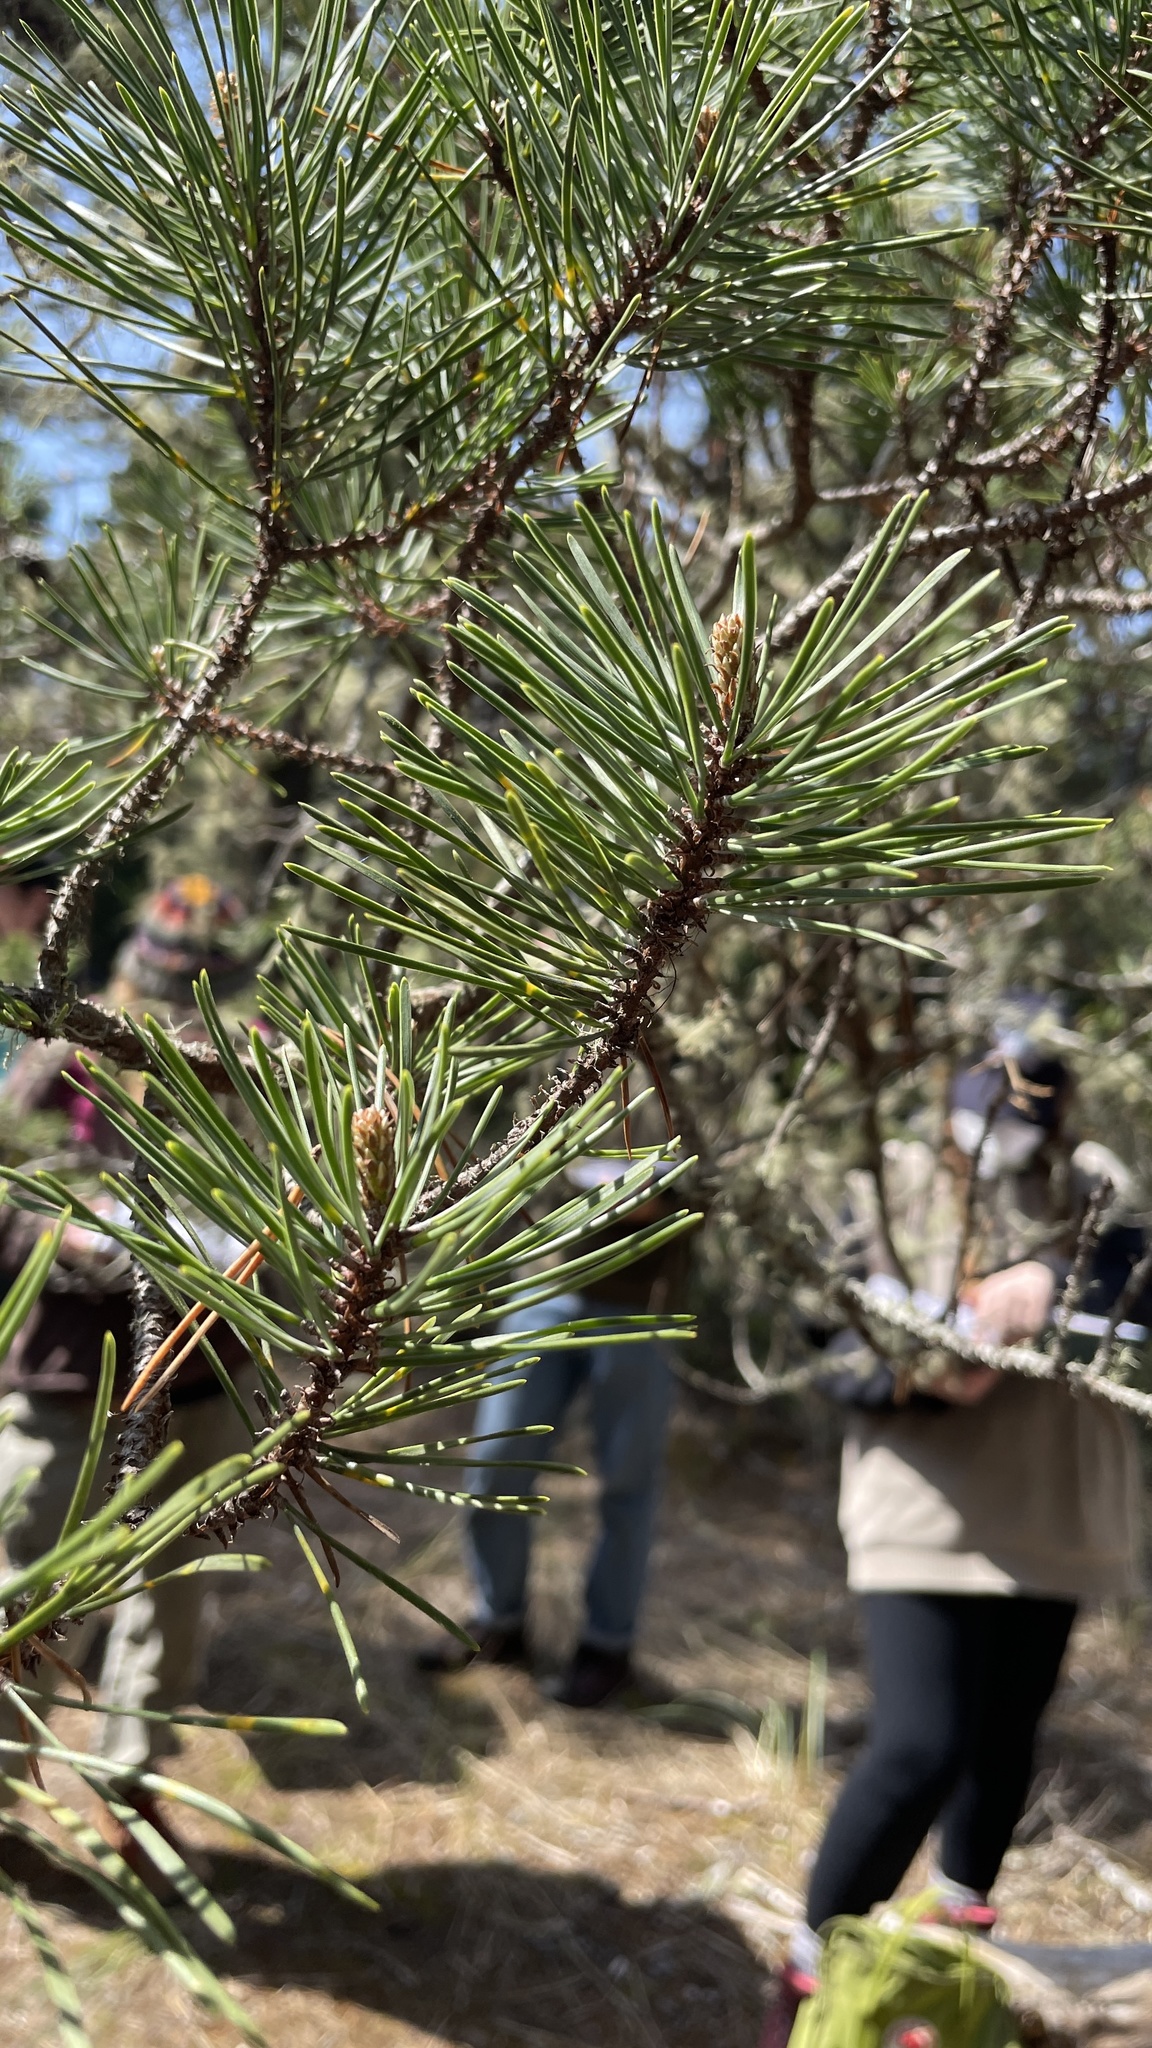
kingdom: Plantae
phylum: Tracheophyta
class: Pinopsida
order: Pinales
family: Pinaceae
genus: Pinus
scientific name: Pinus contorta
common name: Lodgepole pine
